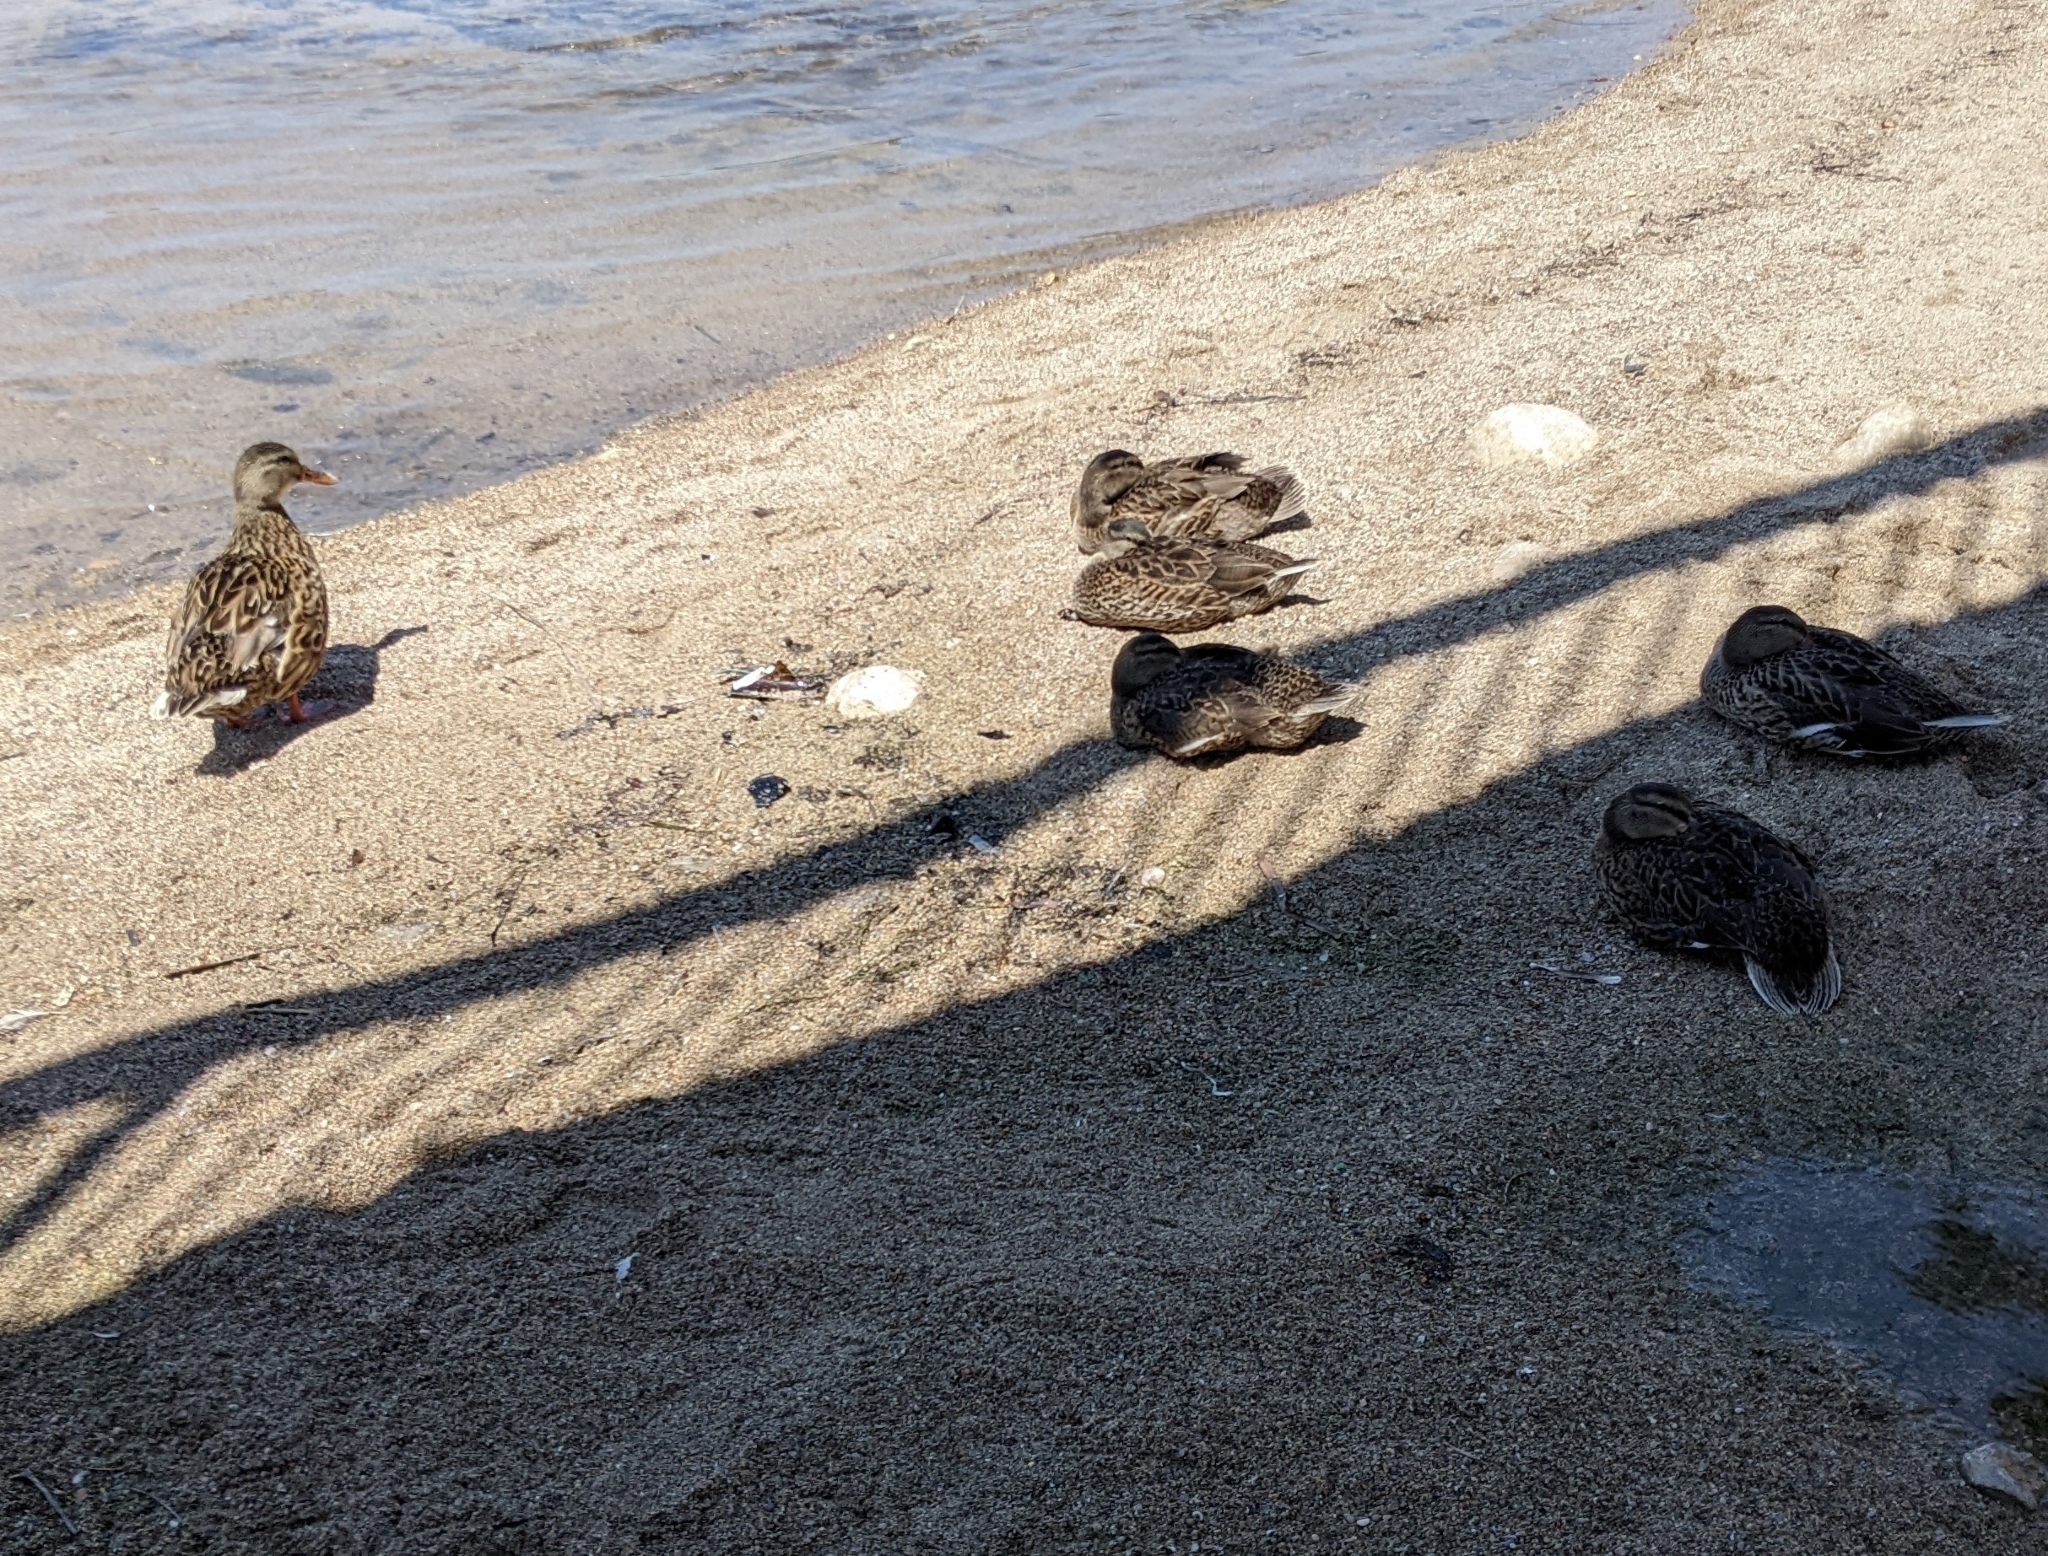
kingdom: Animalia
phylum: Chordata
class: Aves
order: Anseriformes
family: Anatidae
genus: Anas
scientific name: Anas platyrhynchos
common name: Mallard
